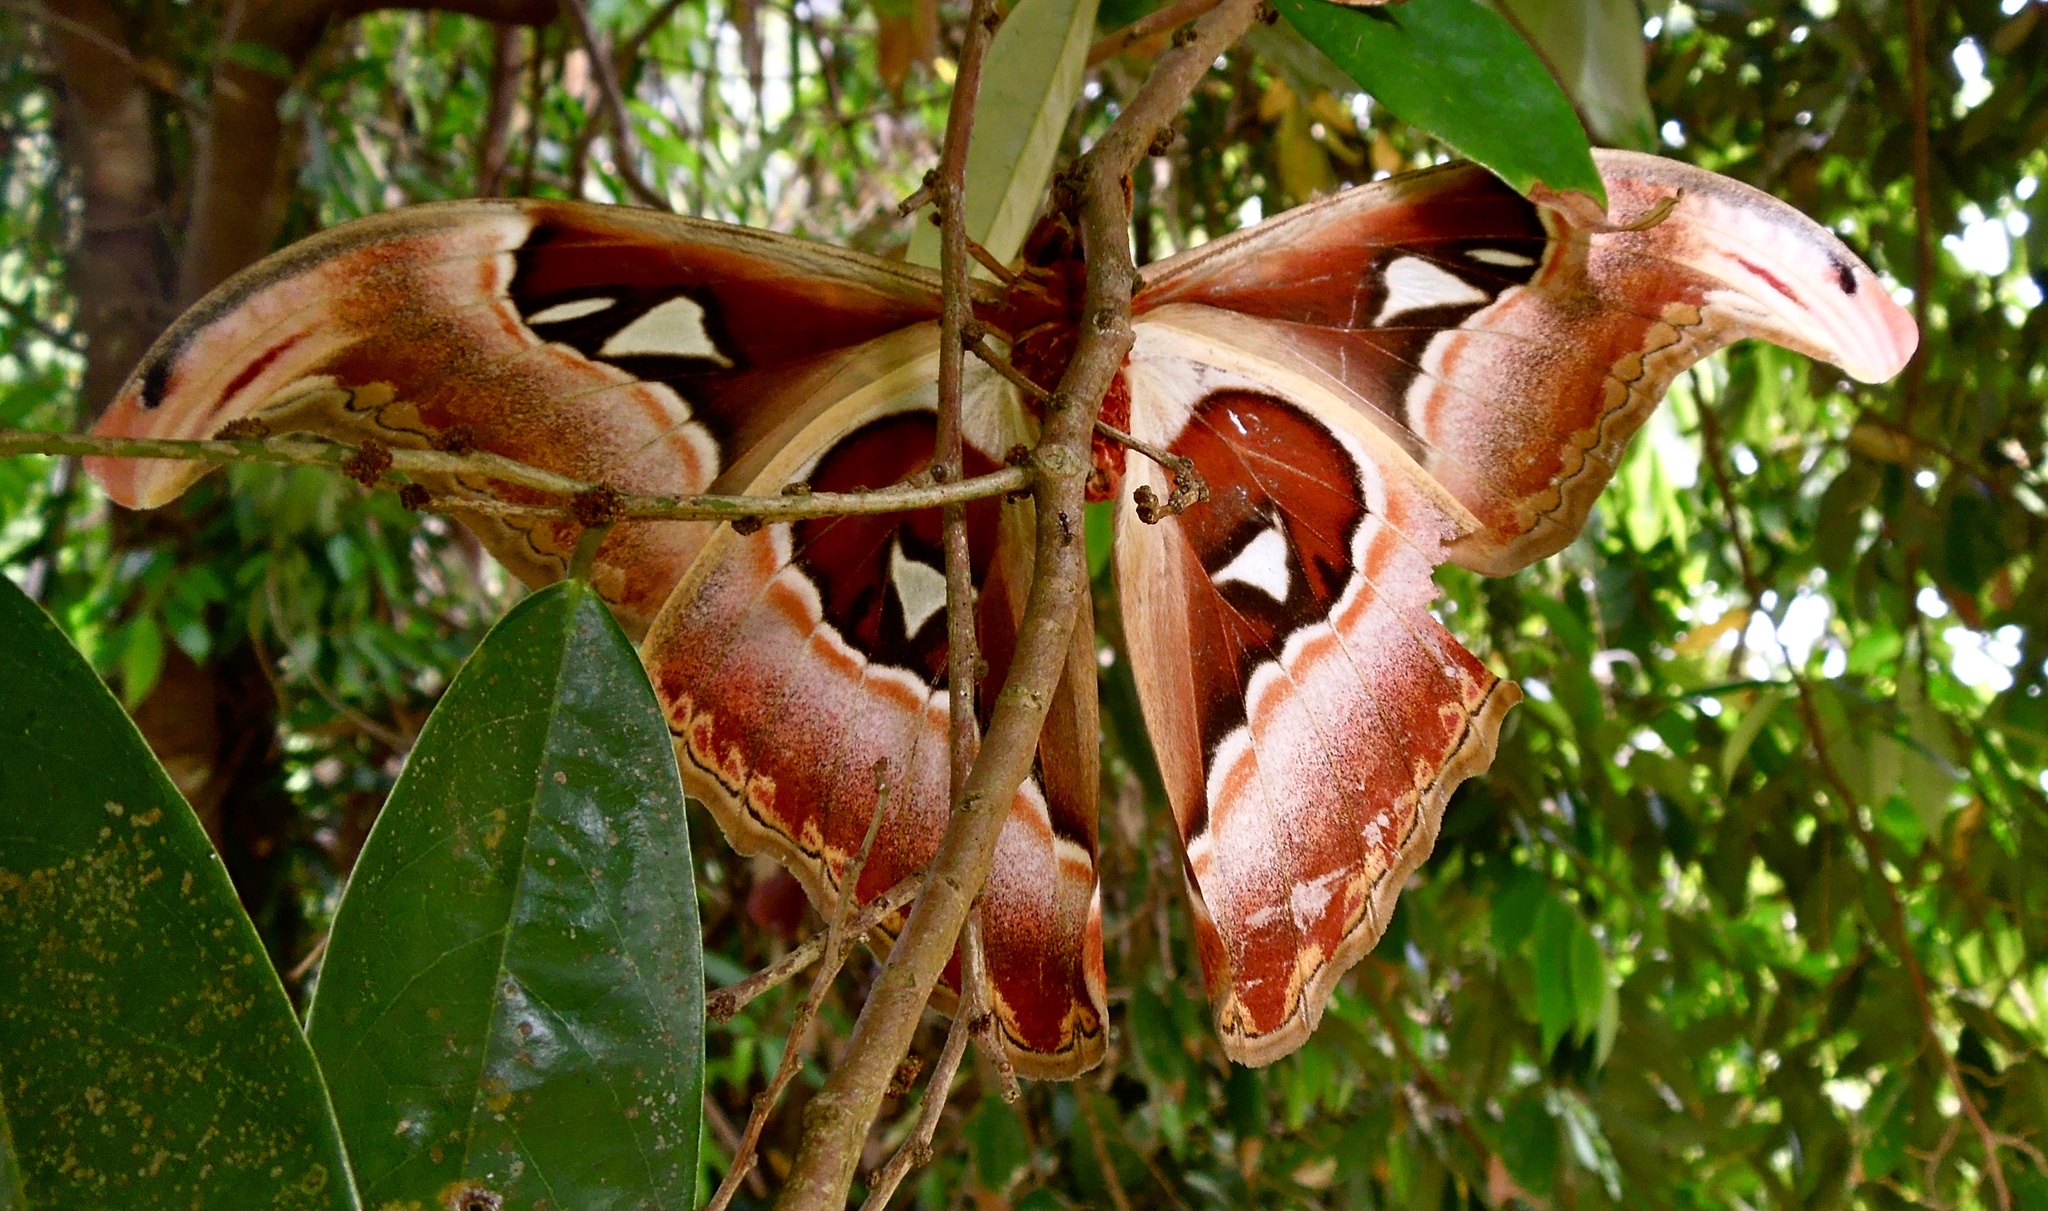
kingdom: Animalia
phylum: Arthropoda
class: Insecta
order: Lepidoptera
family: Saturniidae
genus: Attacus
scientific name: Attacus lemairei
